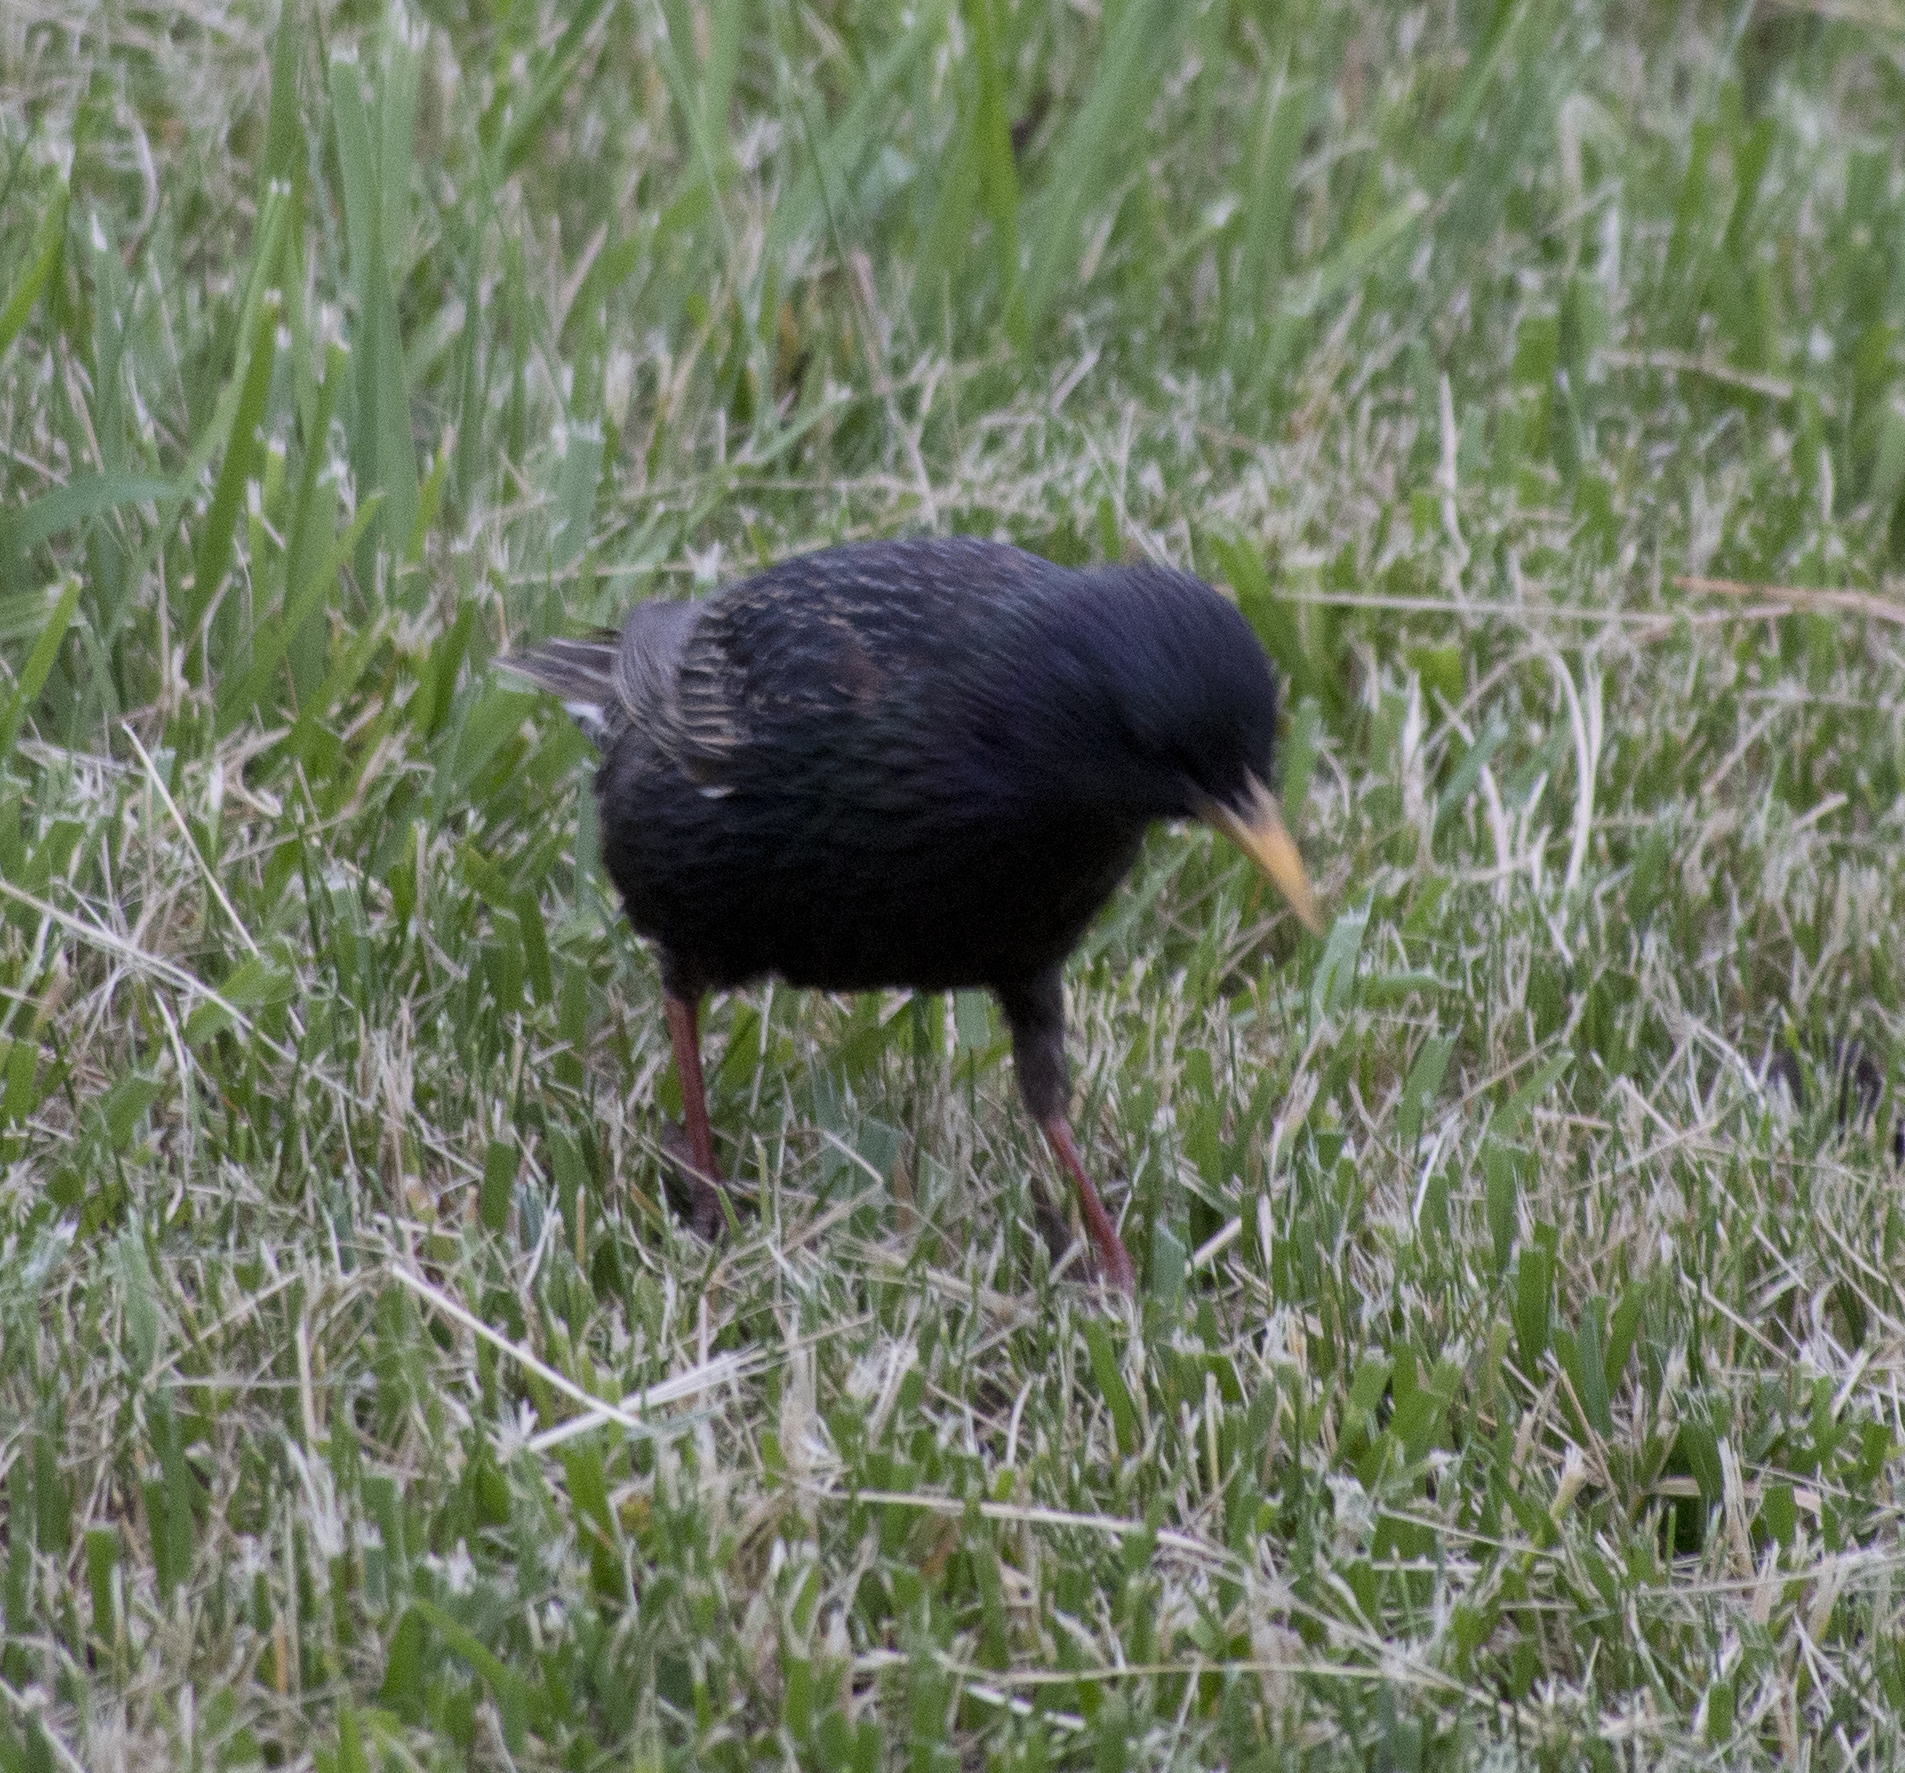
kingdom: Animalia
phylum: Chordata
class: Aves
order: Passeriformes
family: Sturnidae
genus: Sturnus
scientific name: Sturnus vulgaris
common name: Common starling
